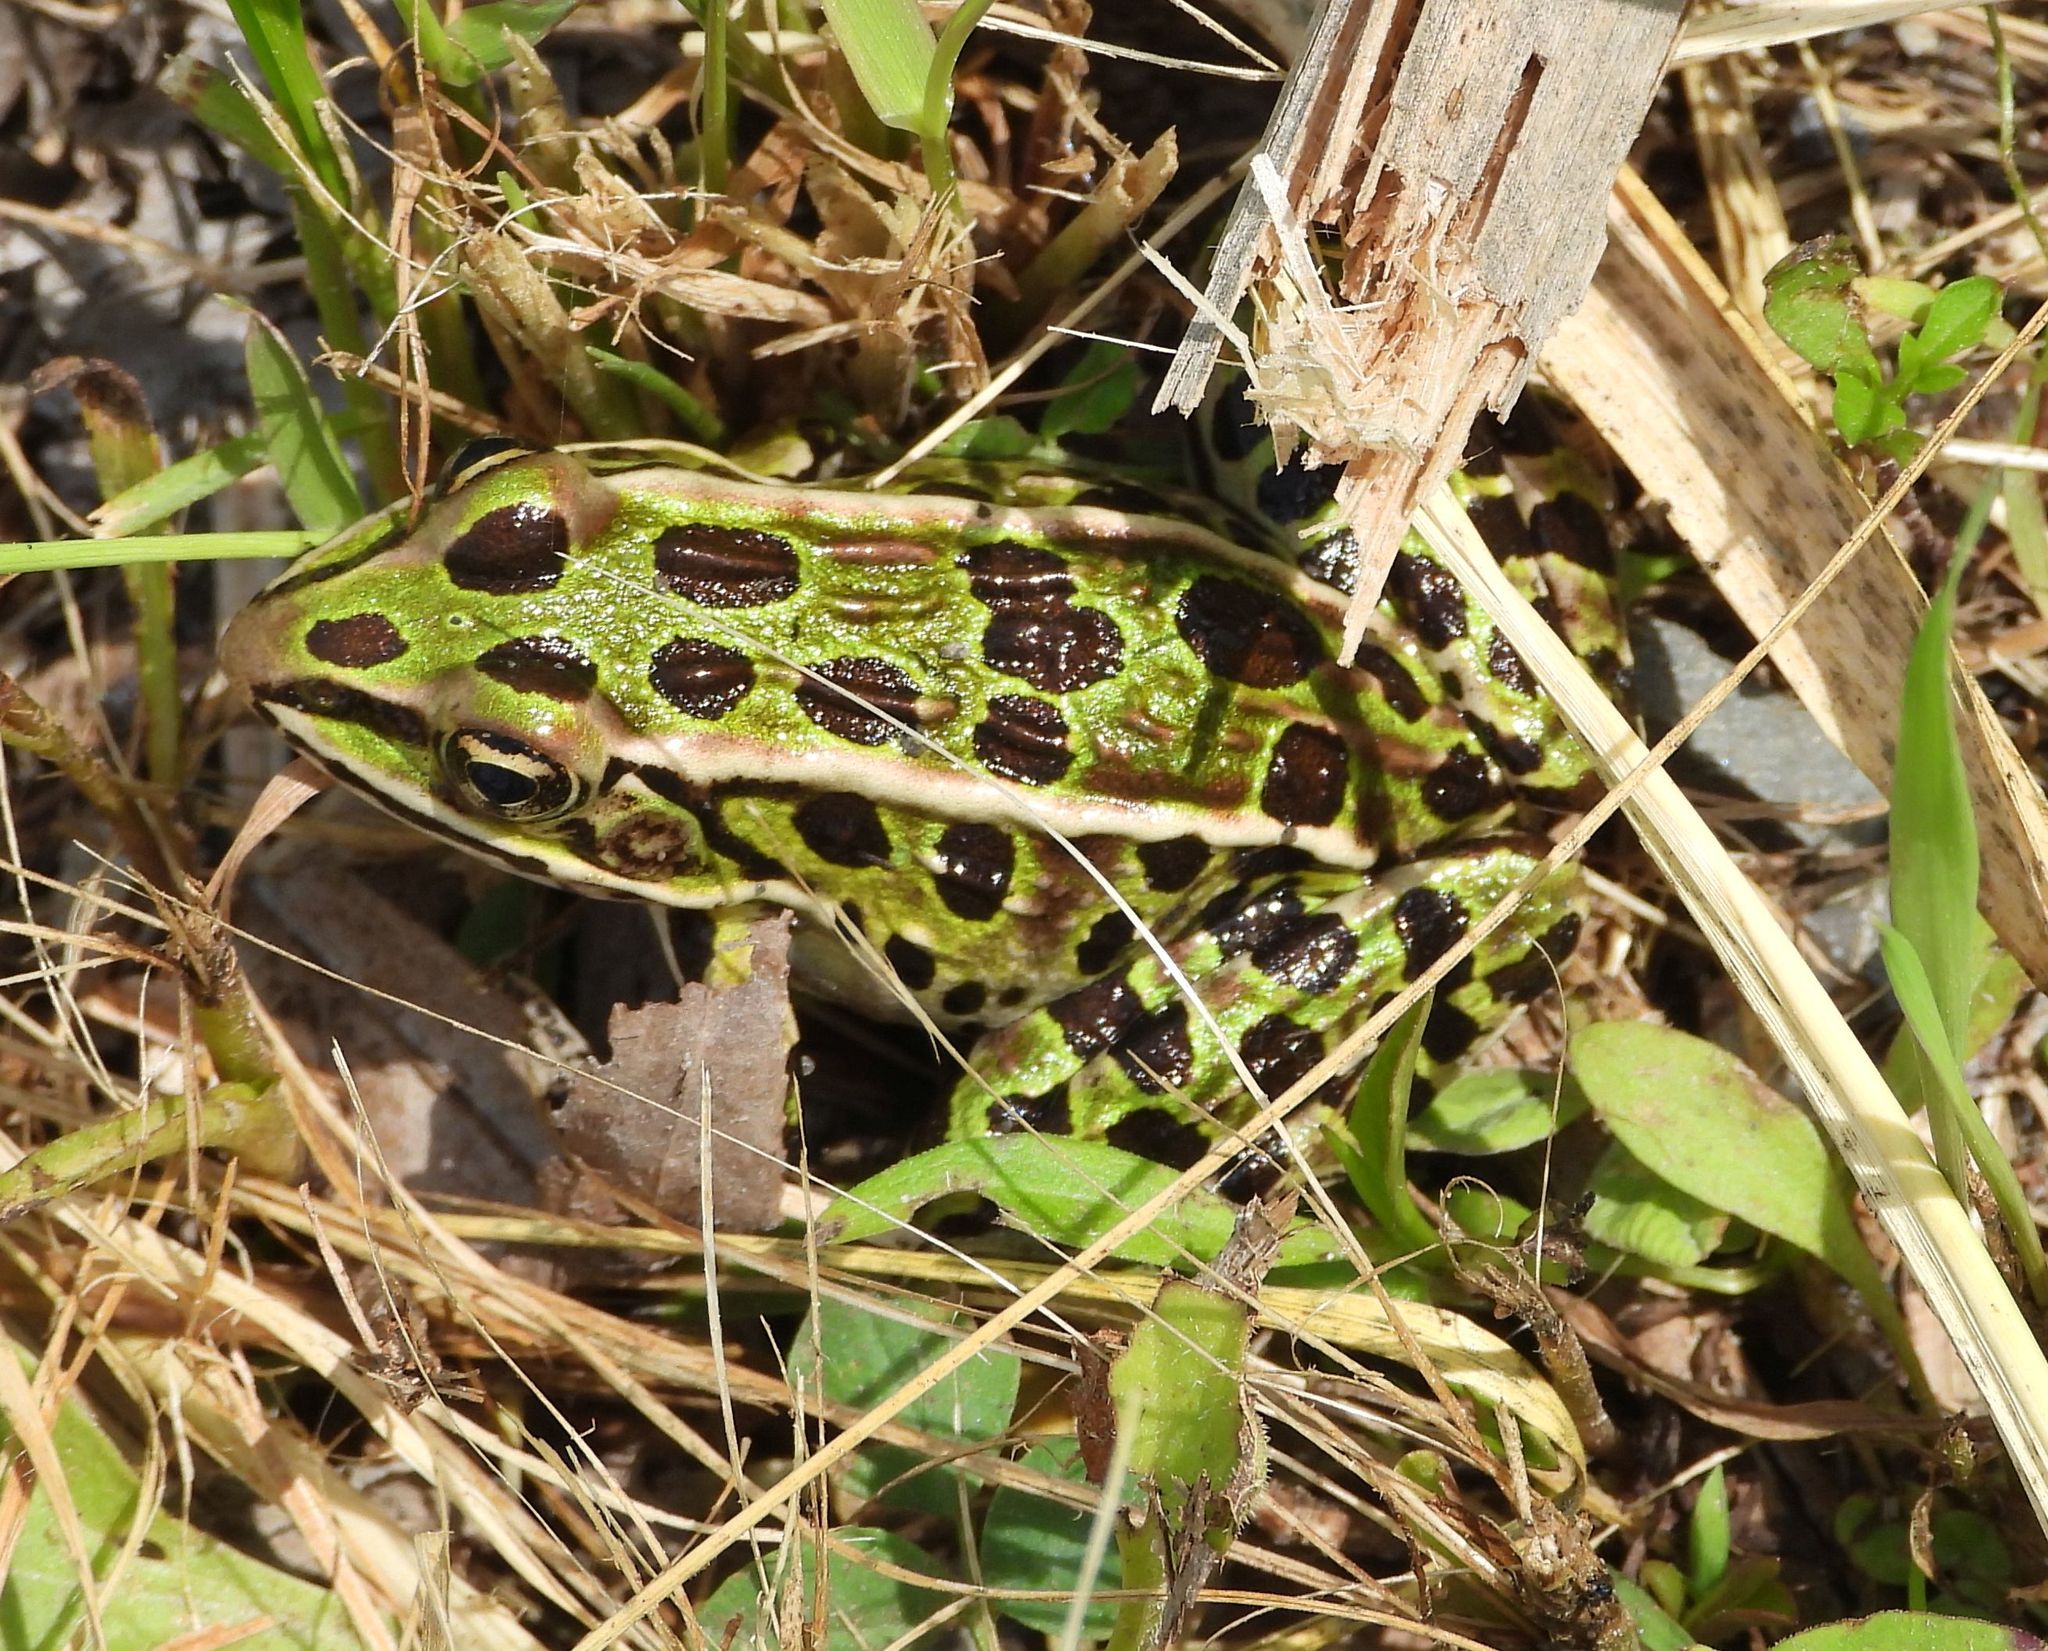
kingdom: Animalia
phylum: Chordata
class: Amphibia
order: Anura
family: Ranidae
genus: Lithobates
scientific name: Lithobates pipiens
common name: Northern leopard frog
